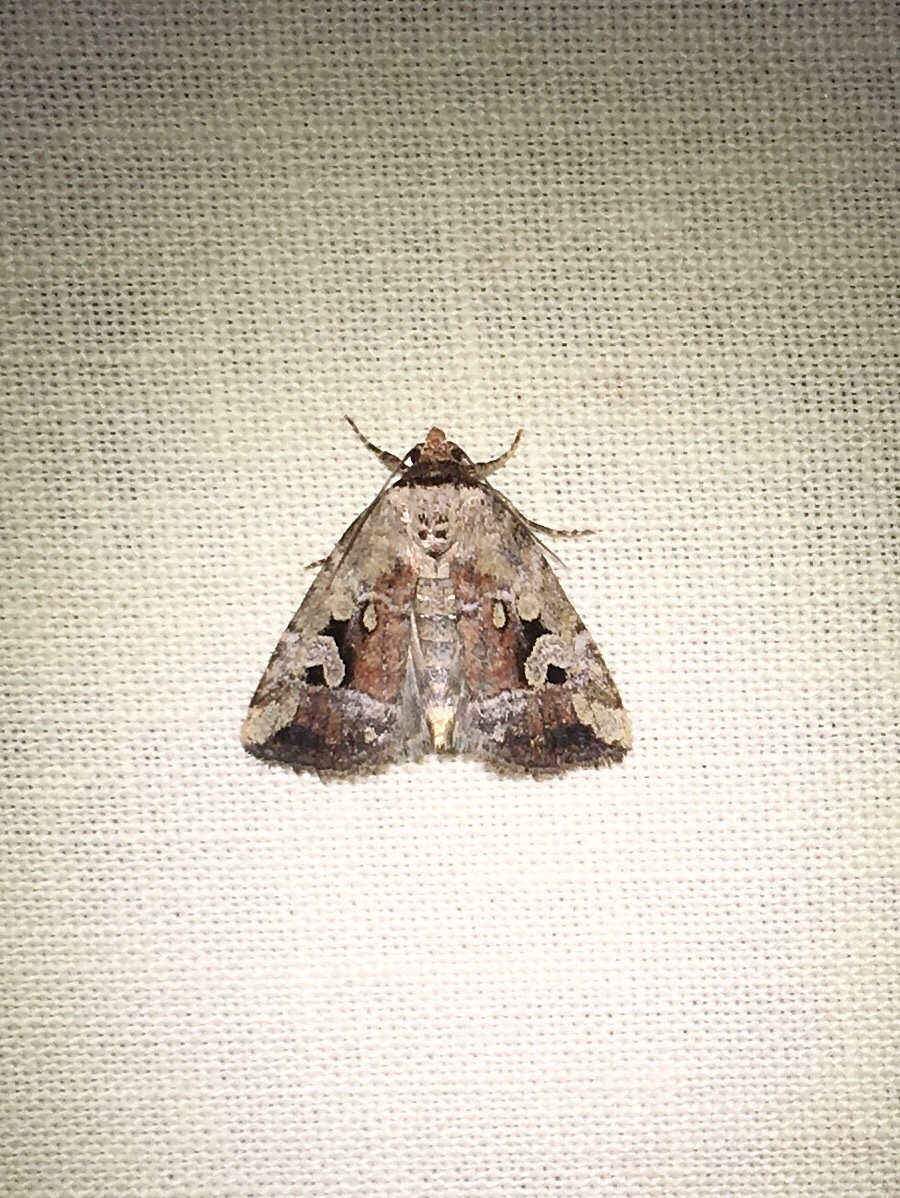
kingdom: Animalia
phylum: Arthropoda
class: Insecta
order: Lepidoptera
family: Noctuidae
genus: Elaphria
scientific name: Elaphria alapallida
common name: Pale-winged midget
